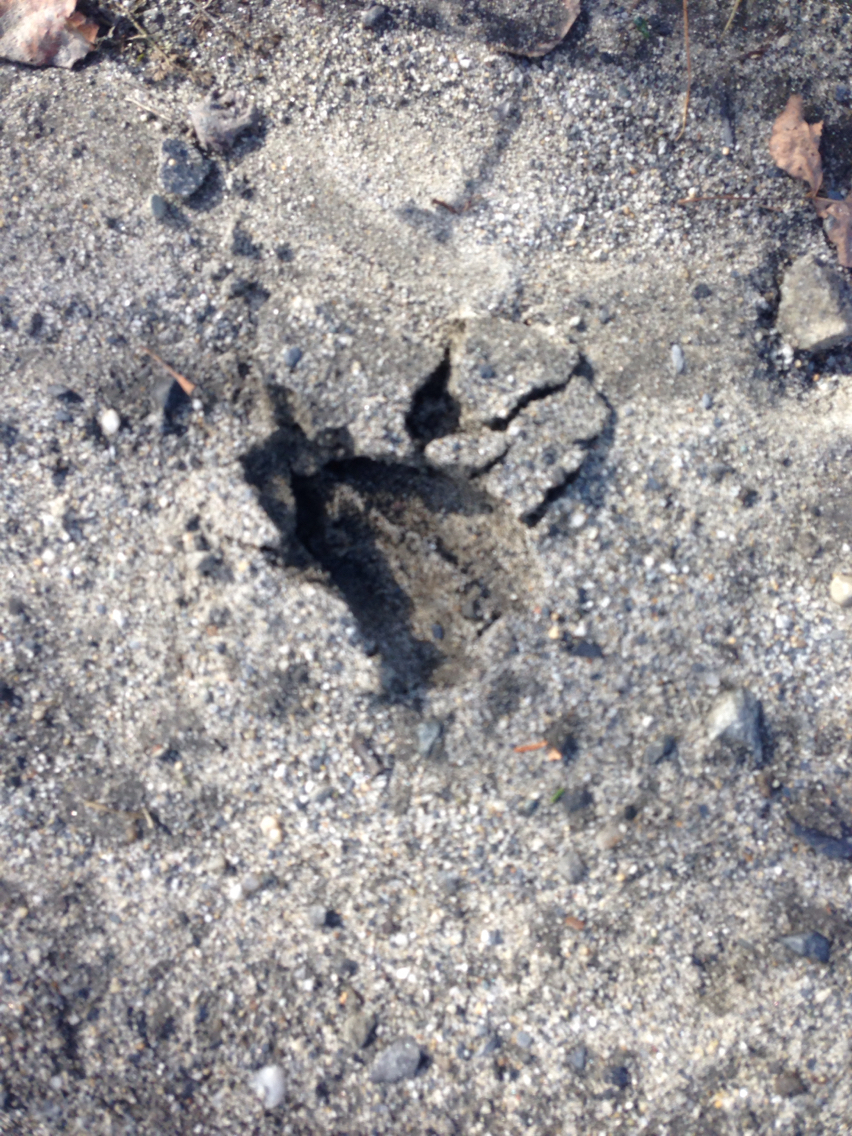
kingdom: Animalia
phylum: Chordata
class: Mammalia
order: Artiodactyla
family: Cervidae
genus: Odocoileus
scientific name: Odocoileus virginianus
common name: White-tailed deer
